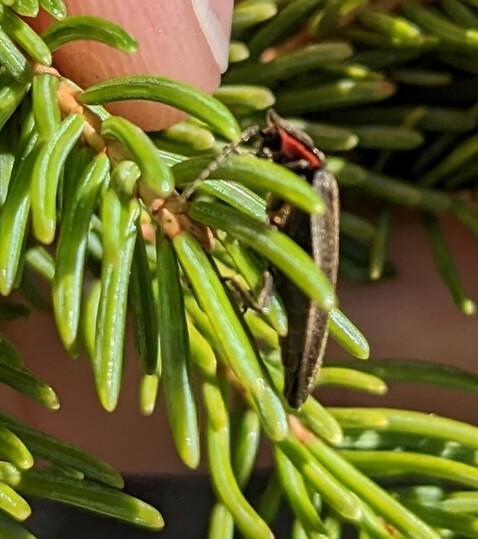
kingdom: Animalia
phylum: Arthropoda
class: Insecta
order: Coleoptera
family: Lampyridae
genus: Photinus
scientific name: Photinus corrusca
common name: Winter firefly
